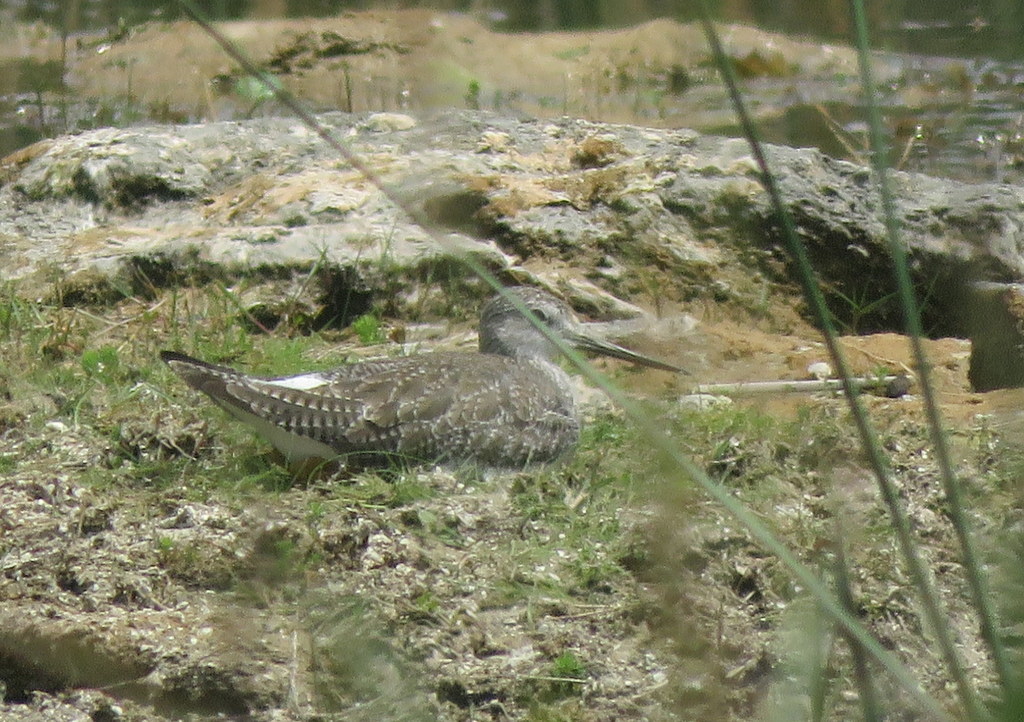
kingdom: Animalia
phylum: Chordata
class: Aves
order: Charadriiformes
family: Scolopacidae
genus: Tringa
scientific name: Tringa melanoleuca
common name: Greater yellowlegs
